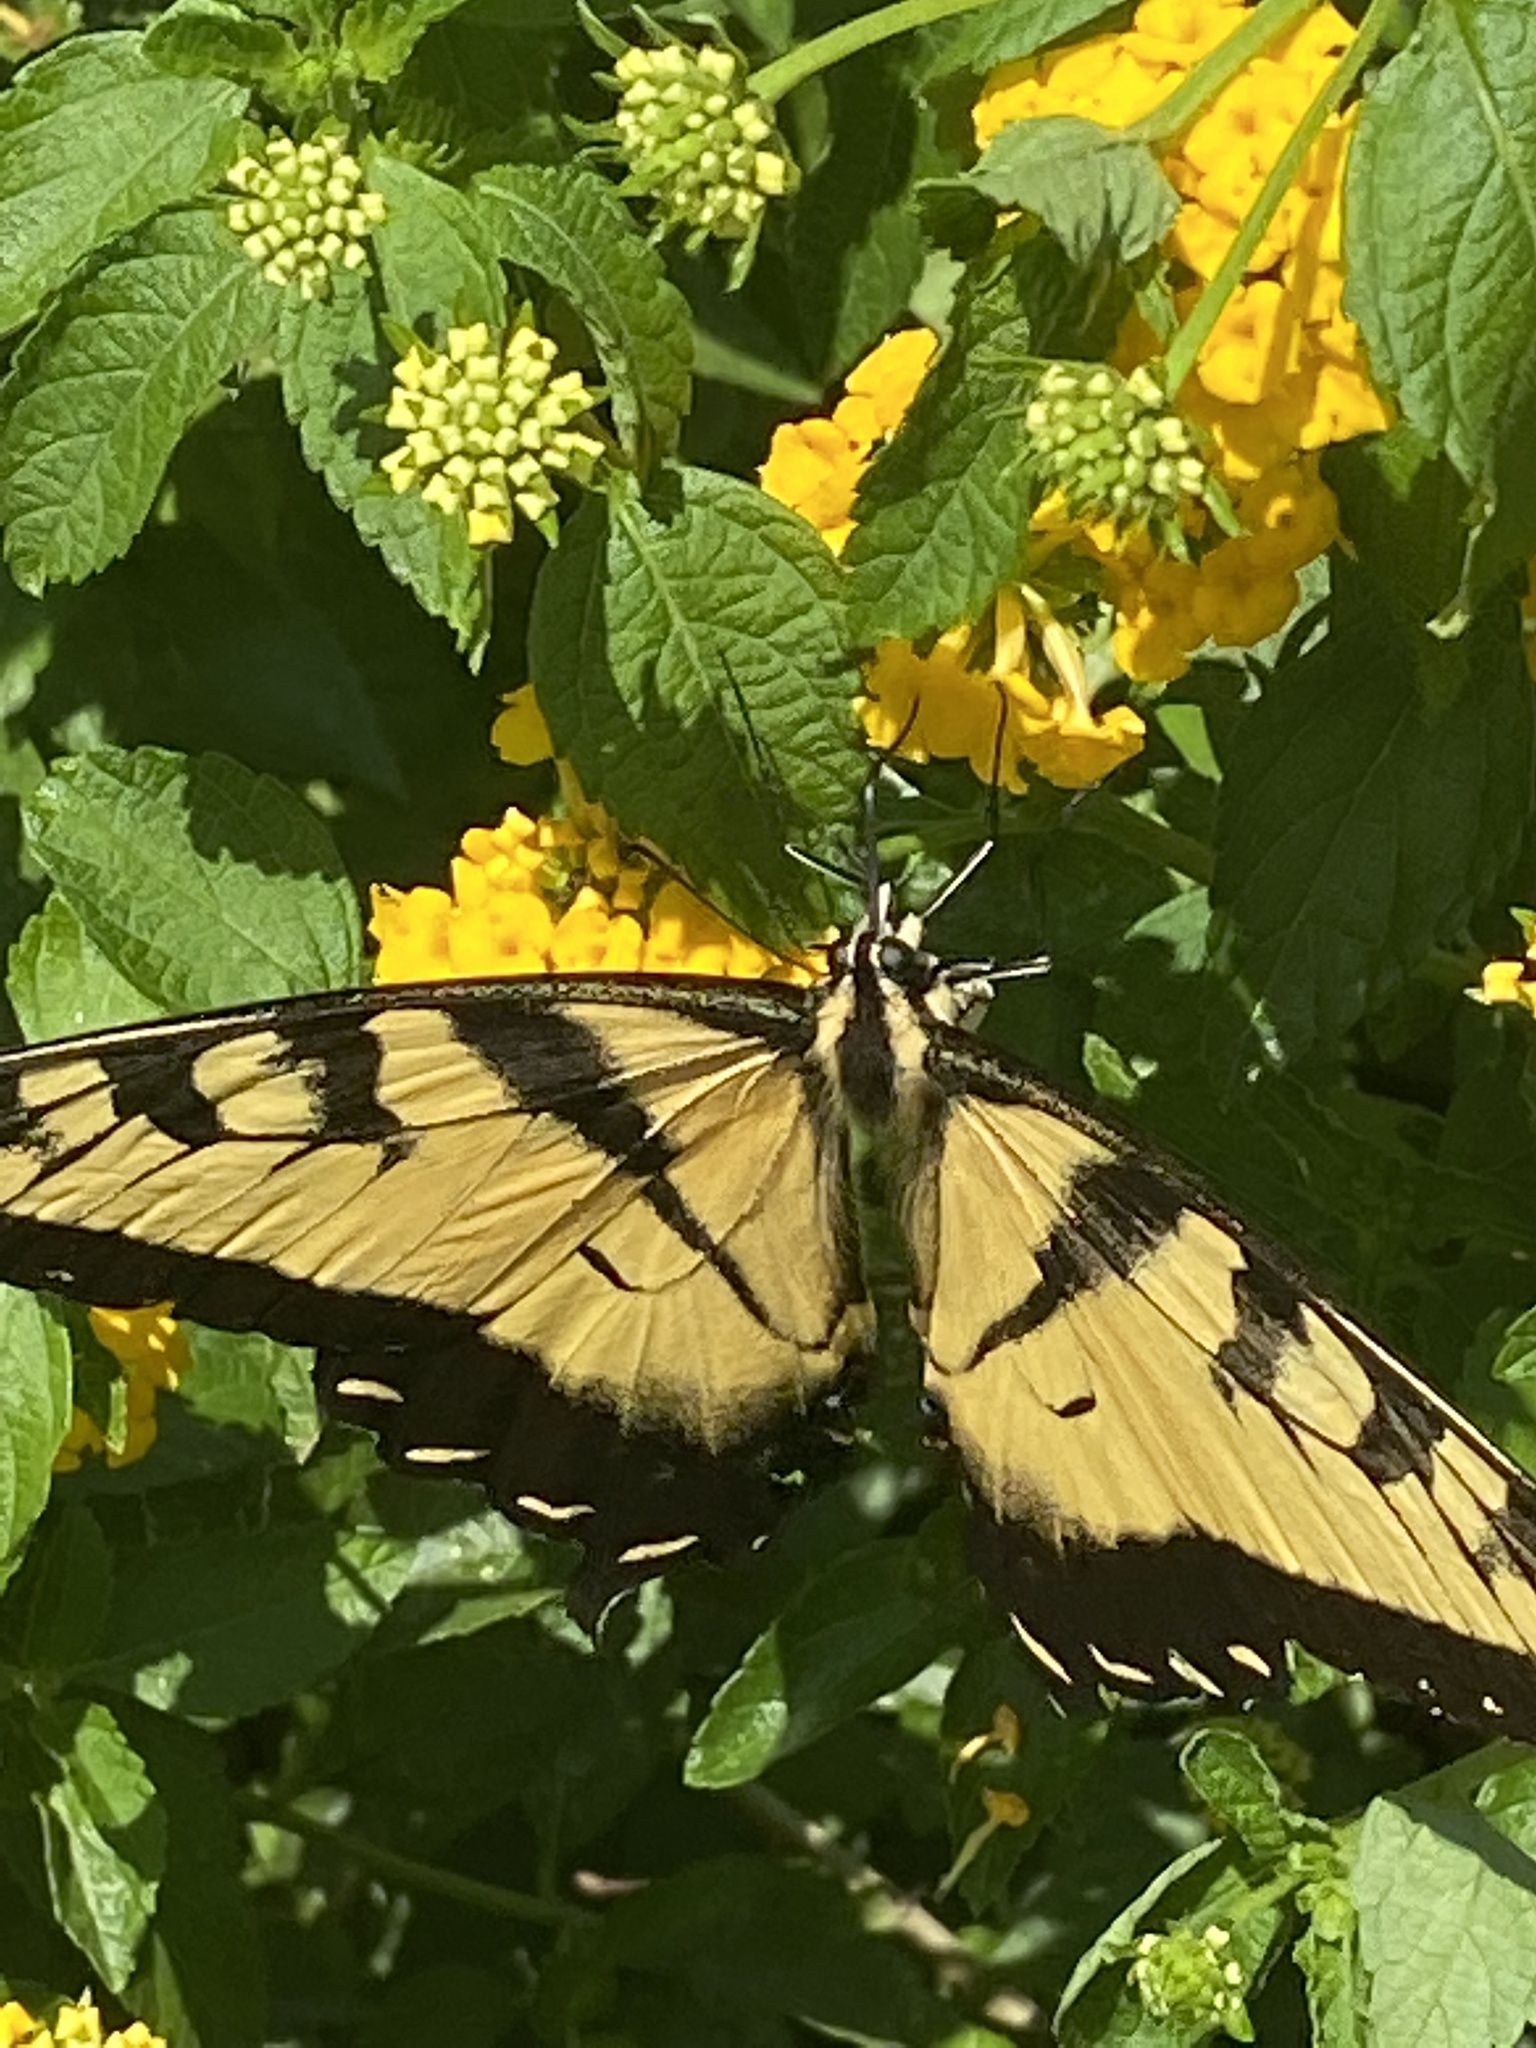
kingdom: Animalia
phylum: Arthropoda
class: Insecta
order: Lepidoptera
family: Papilionidae
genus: Papilio
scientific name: Papilio glaucus
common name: Tiger swallowtail
